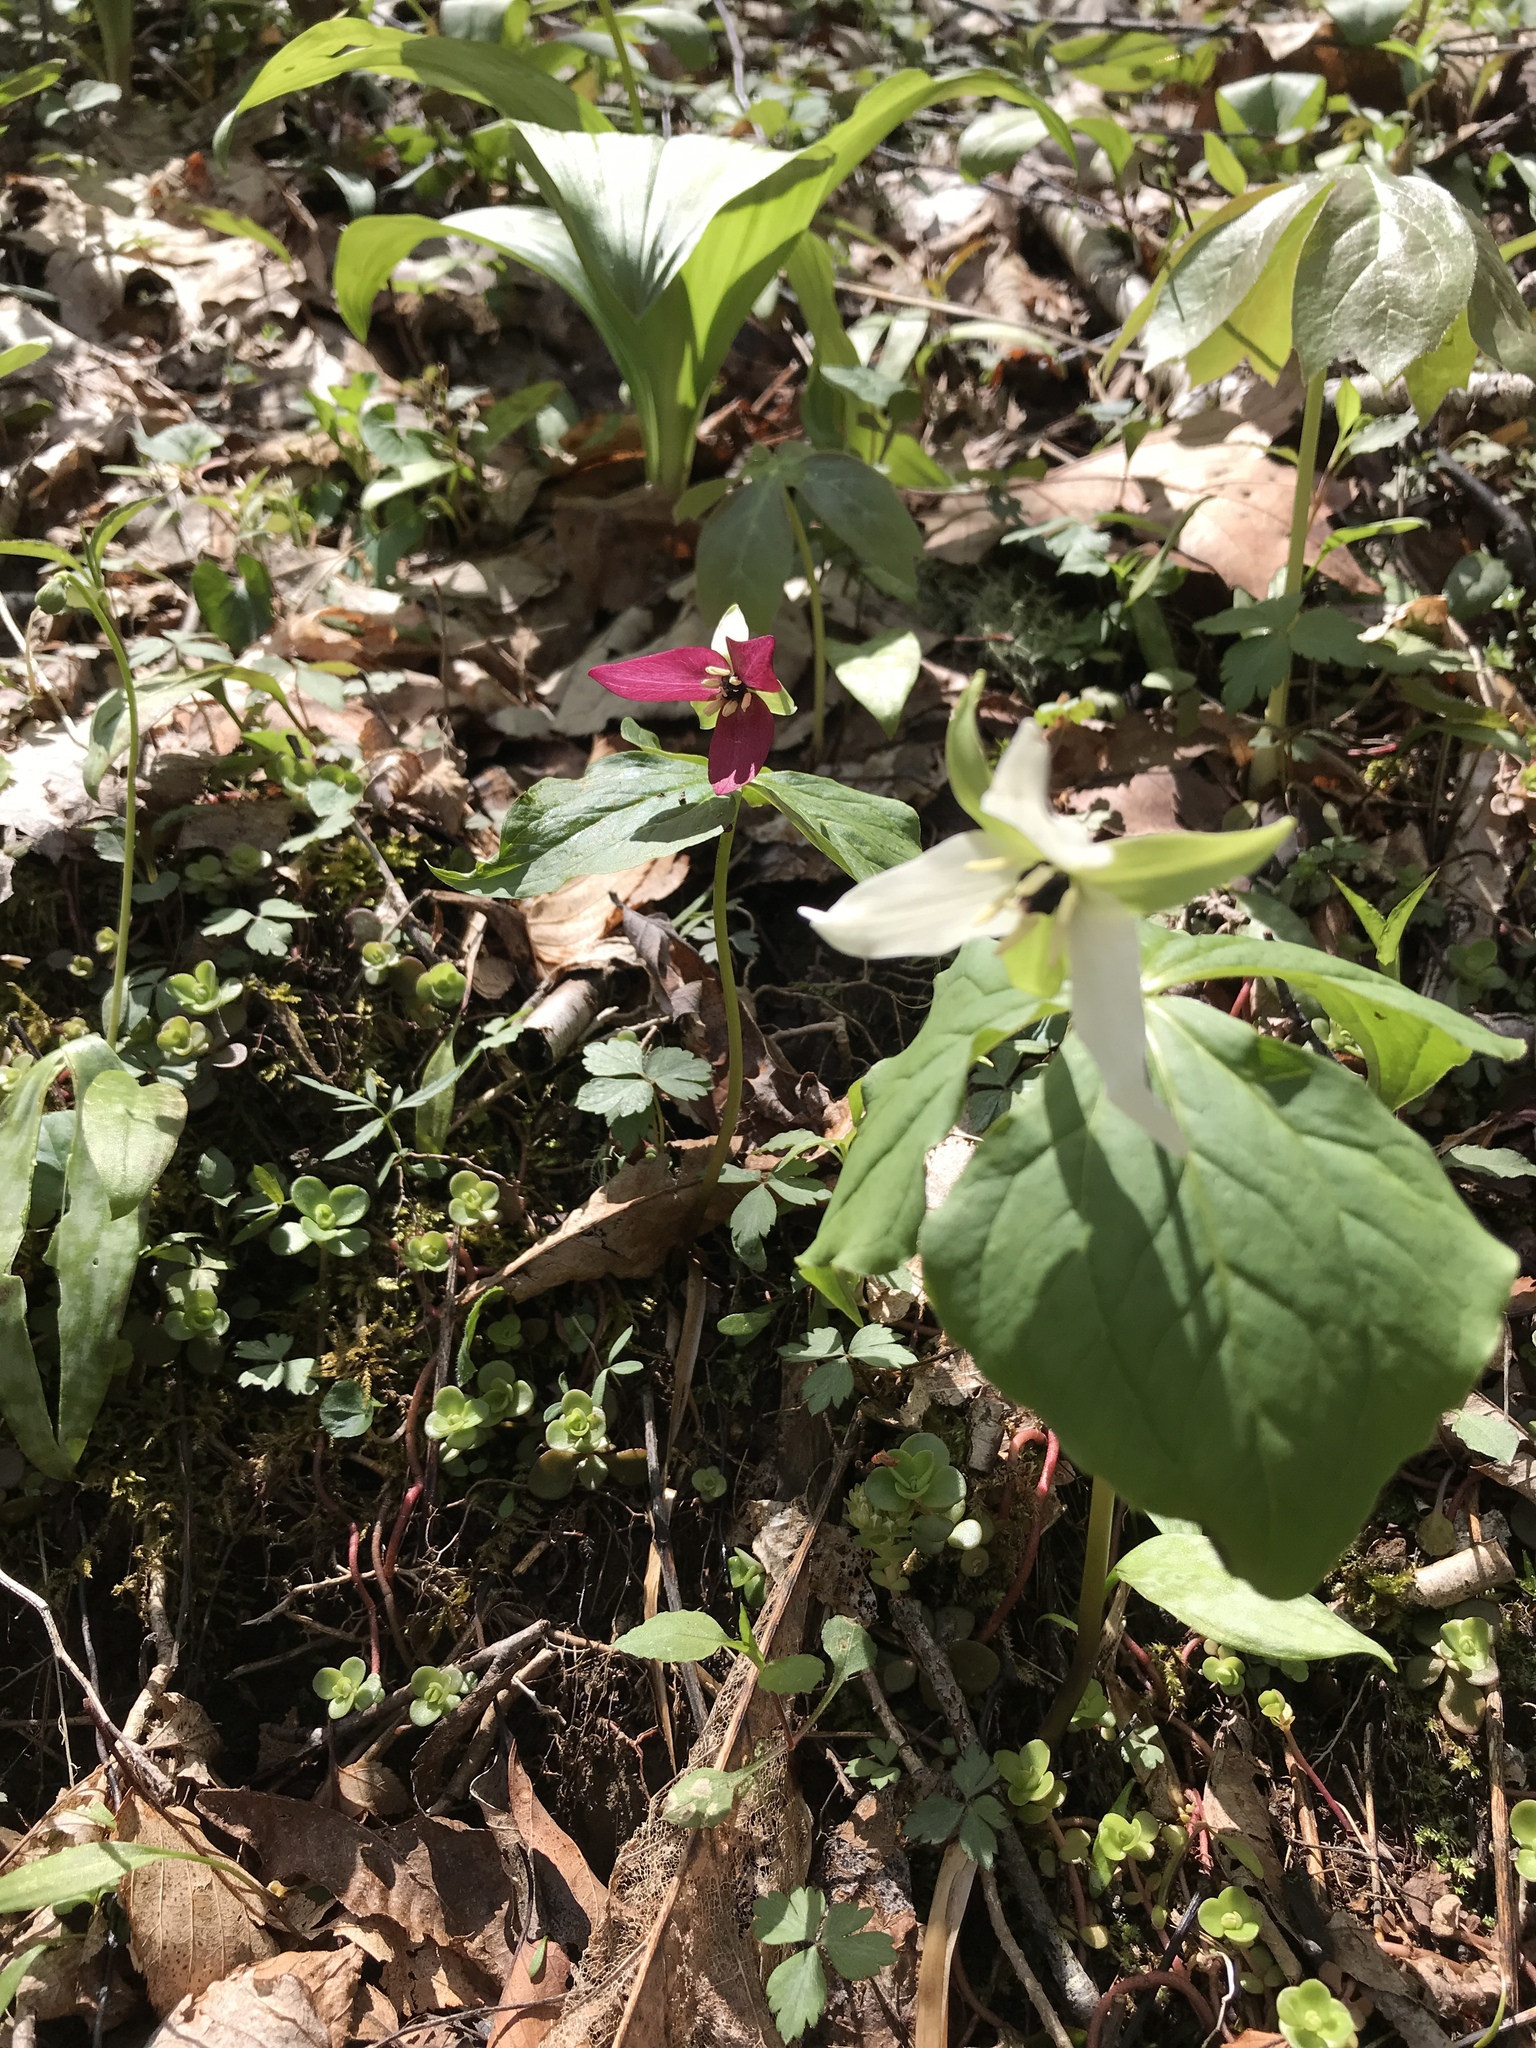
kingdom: Plantae
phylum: Tracheophyta
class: Liliopsida
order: Liliales
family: Melanthiaceae
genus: Trillium
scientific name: Trillium erectum
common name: Purple trillium
